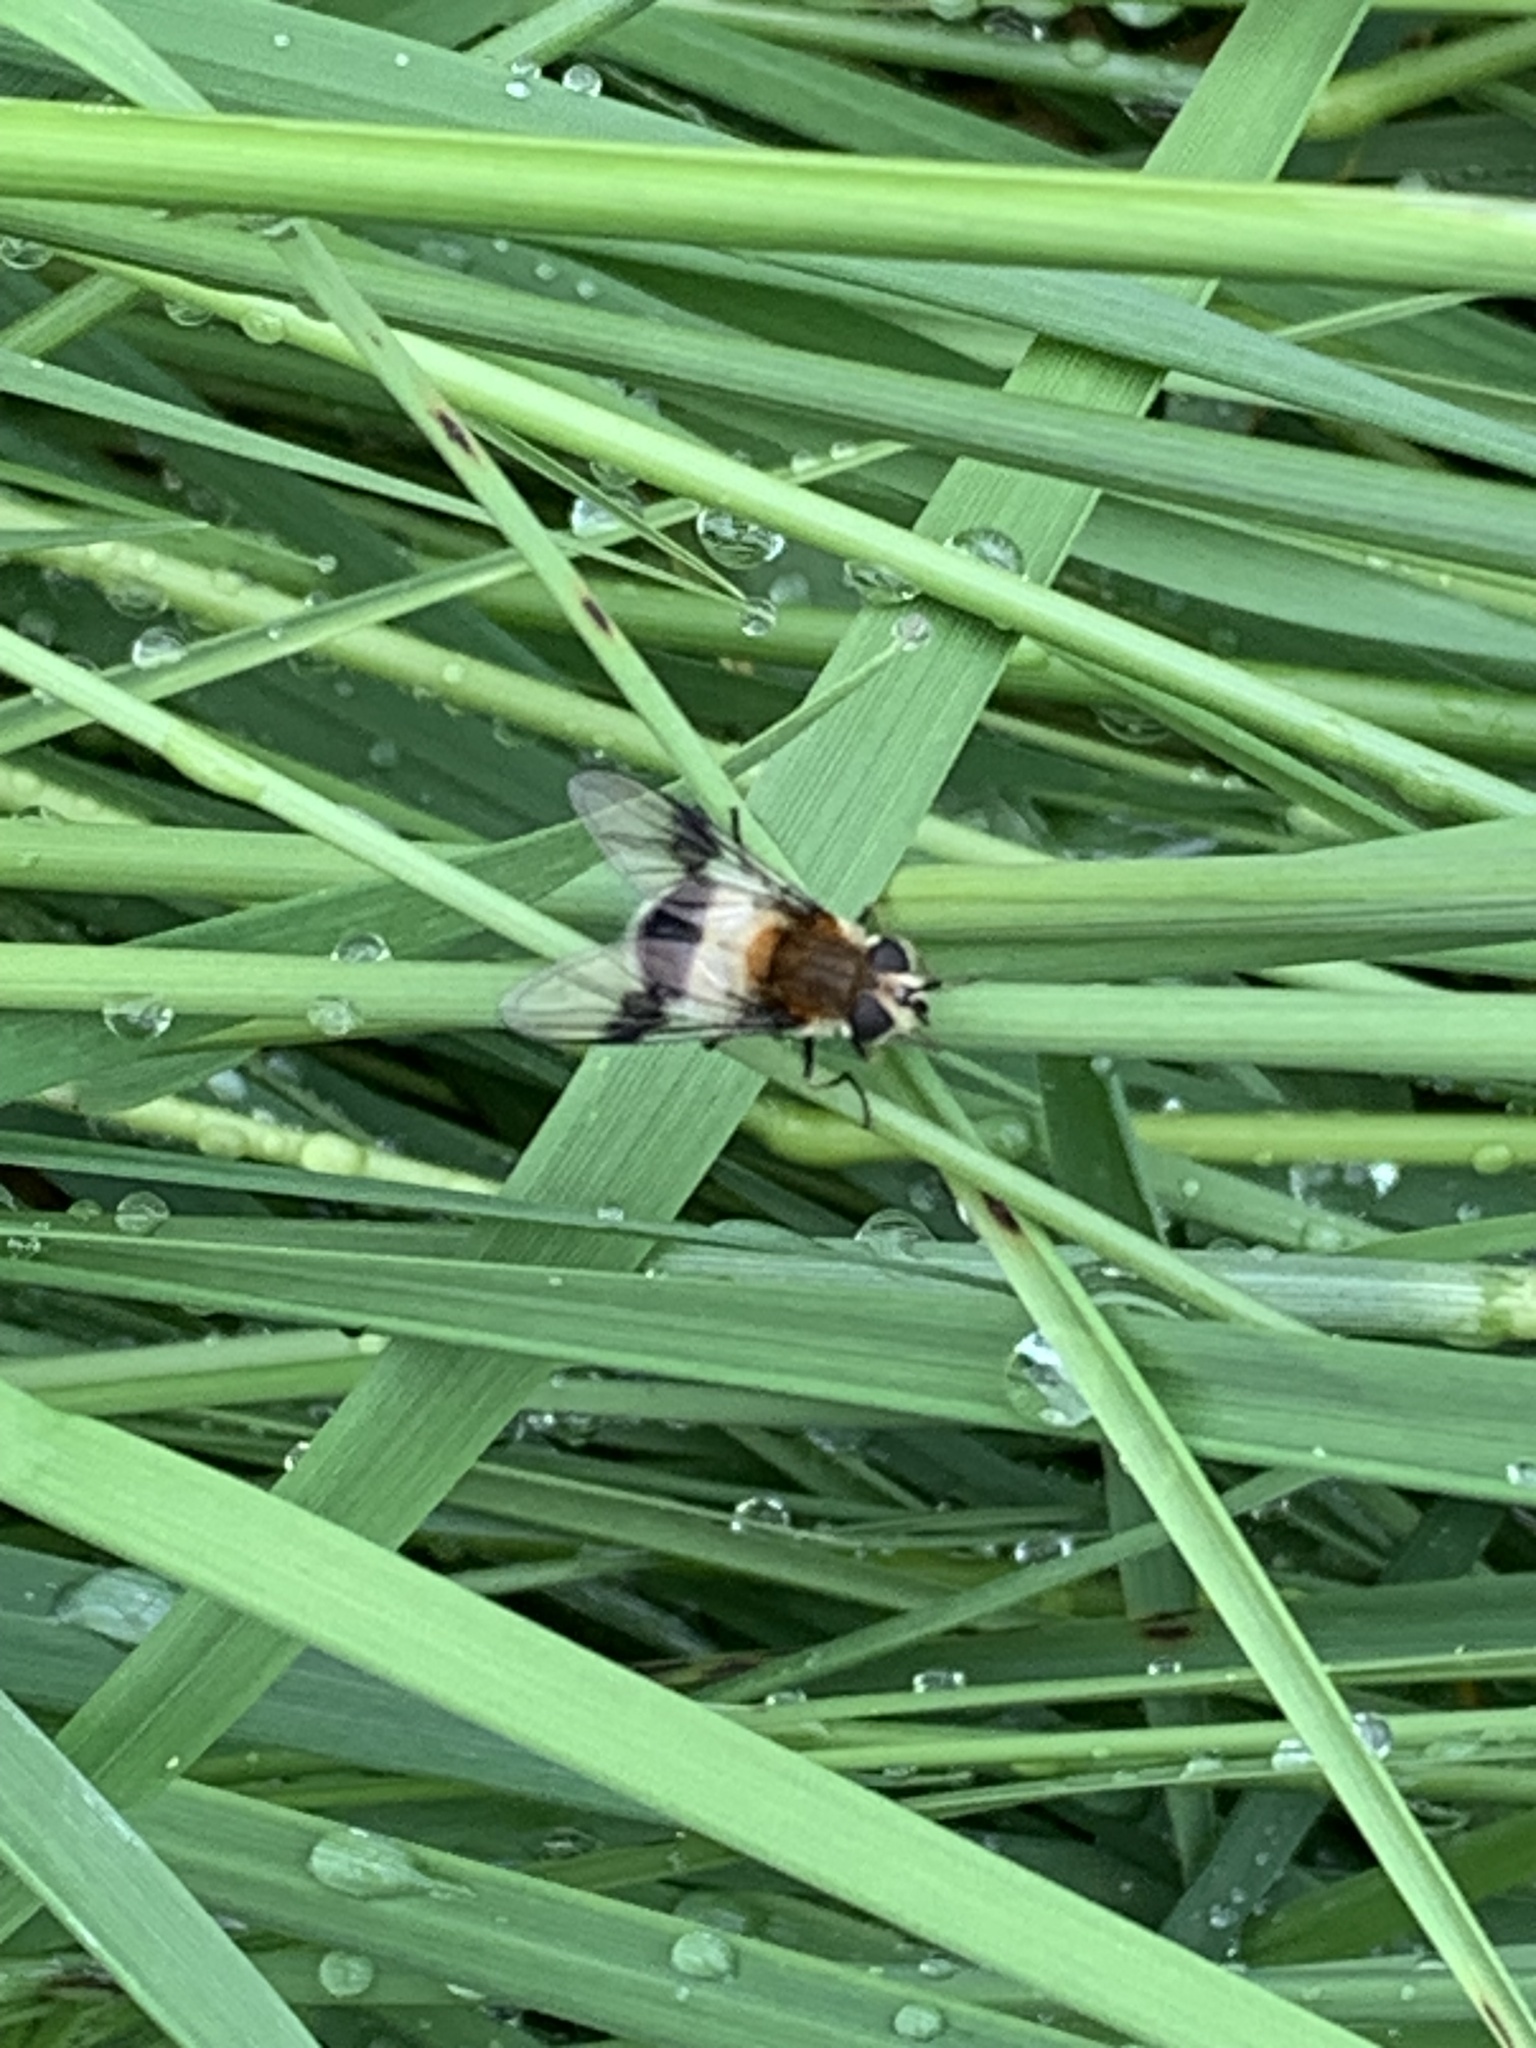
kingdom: Animalia
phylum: Arthropoda
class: Insecta
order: Diptera
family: Syrphidae
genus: Leucozona
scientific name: Leucozona lucorum
